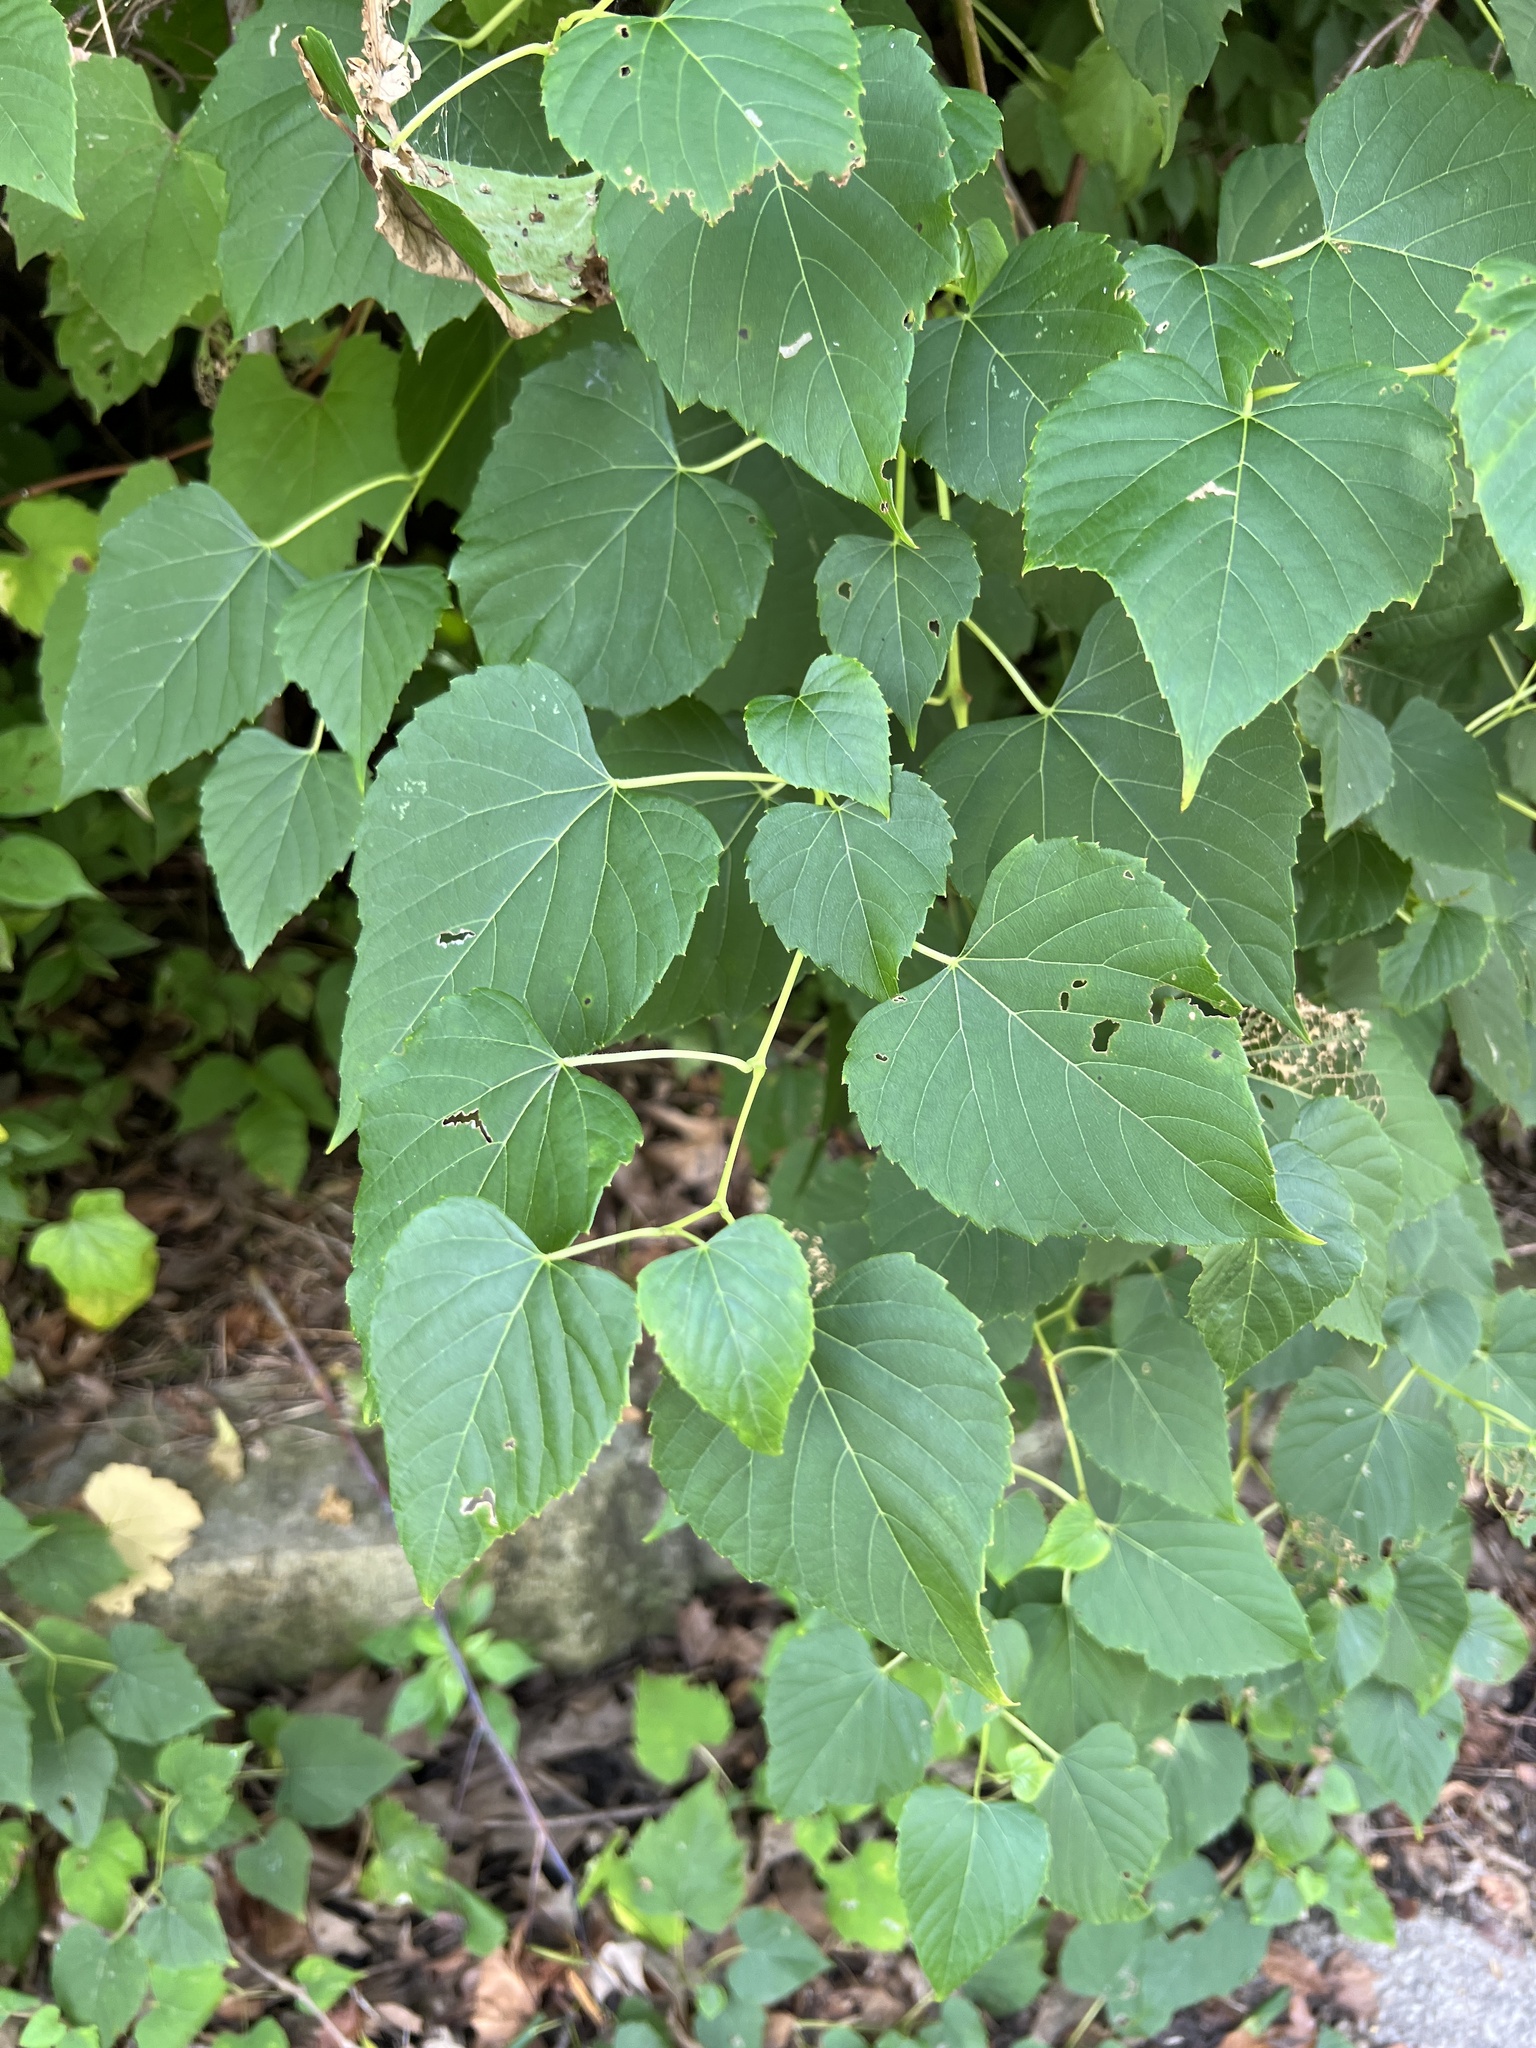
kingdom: Plantae
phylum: Tracheophyta
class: Magnoliopsida
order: Vitales
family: Vitaceae
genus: Ampelopsis
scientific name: Ampelopsis cordata
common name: Heart-leaf ampelopsis
